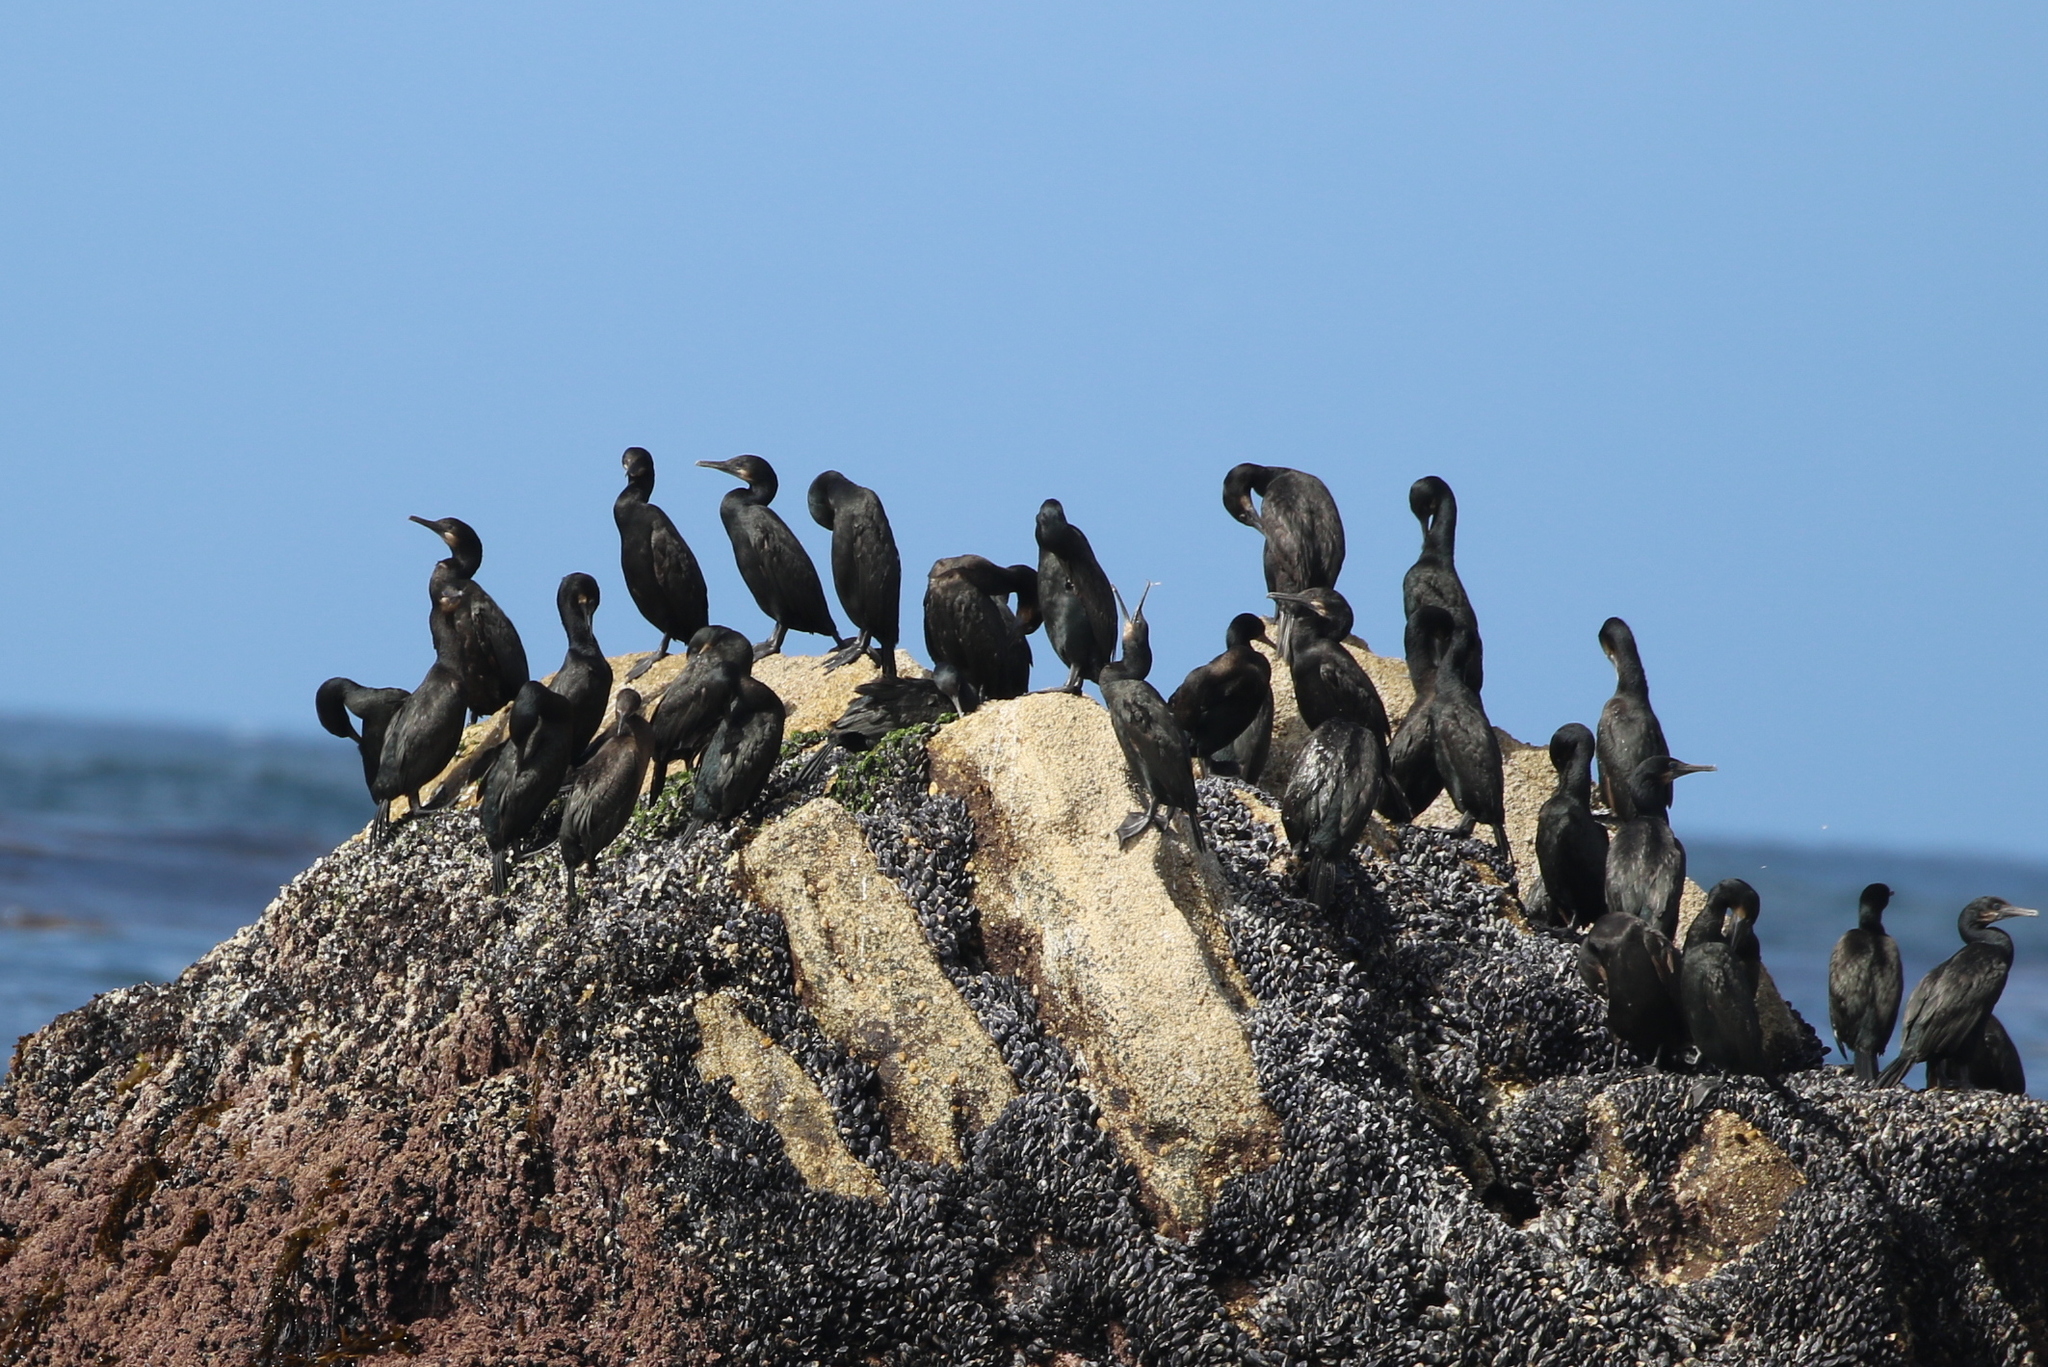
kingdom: Animalia
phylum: Chordata
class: Aves
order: Suliformes
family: Phalacrocoracidae
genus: Urile
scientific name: Urile penicillatus
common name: Brandt's cormorant
